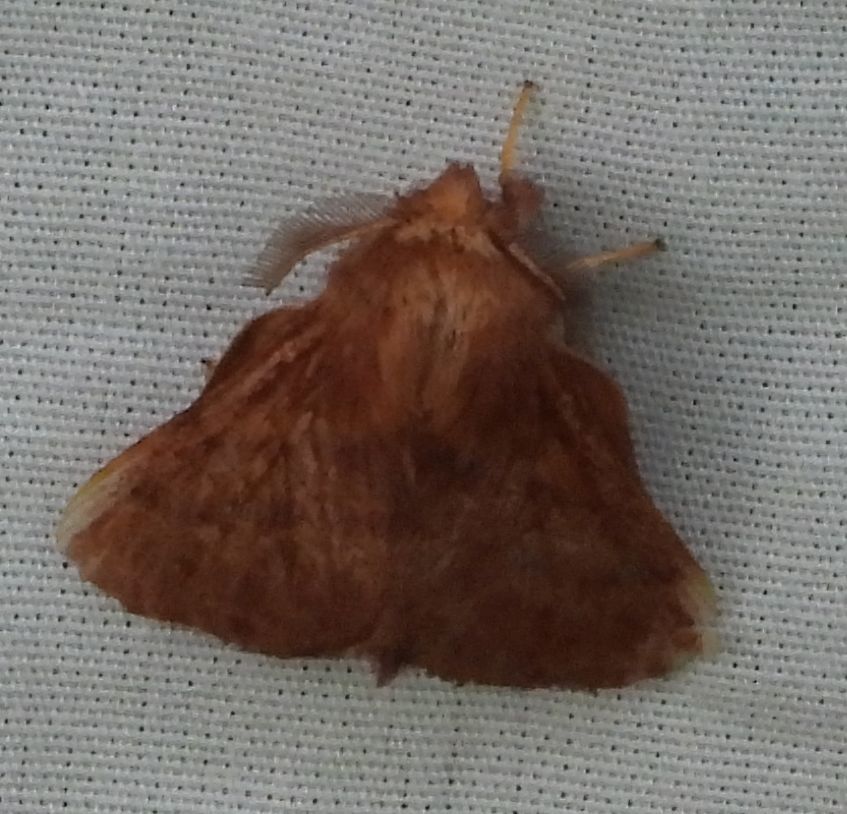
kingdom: Animalia
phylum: Arthropoda
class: Insecta
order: Lepidoptera
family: Lasiocampidae
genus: Malacosoma
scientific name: Malacosoma disstria
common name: Forest tent caterpillar
